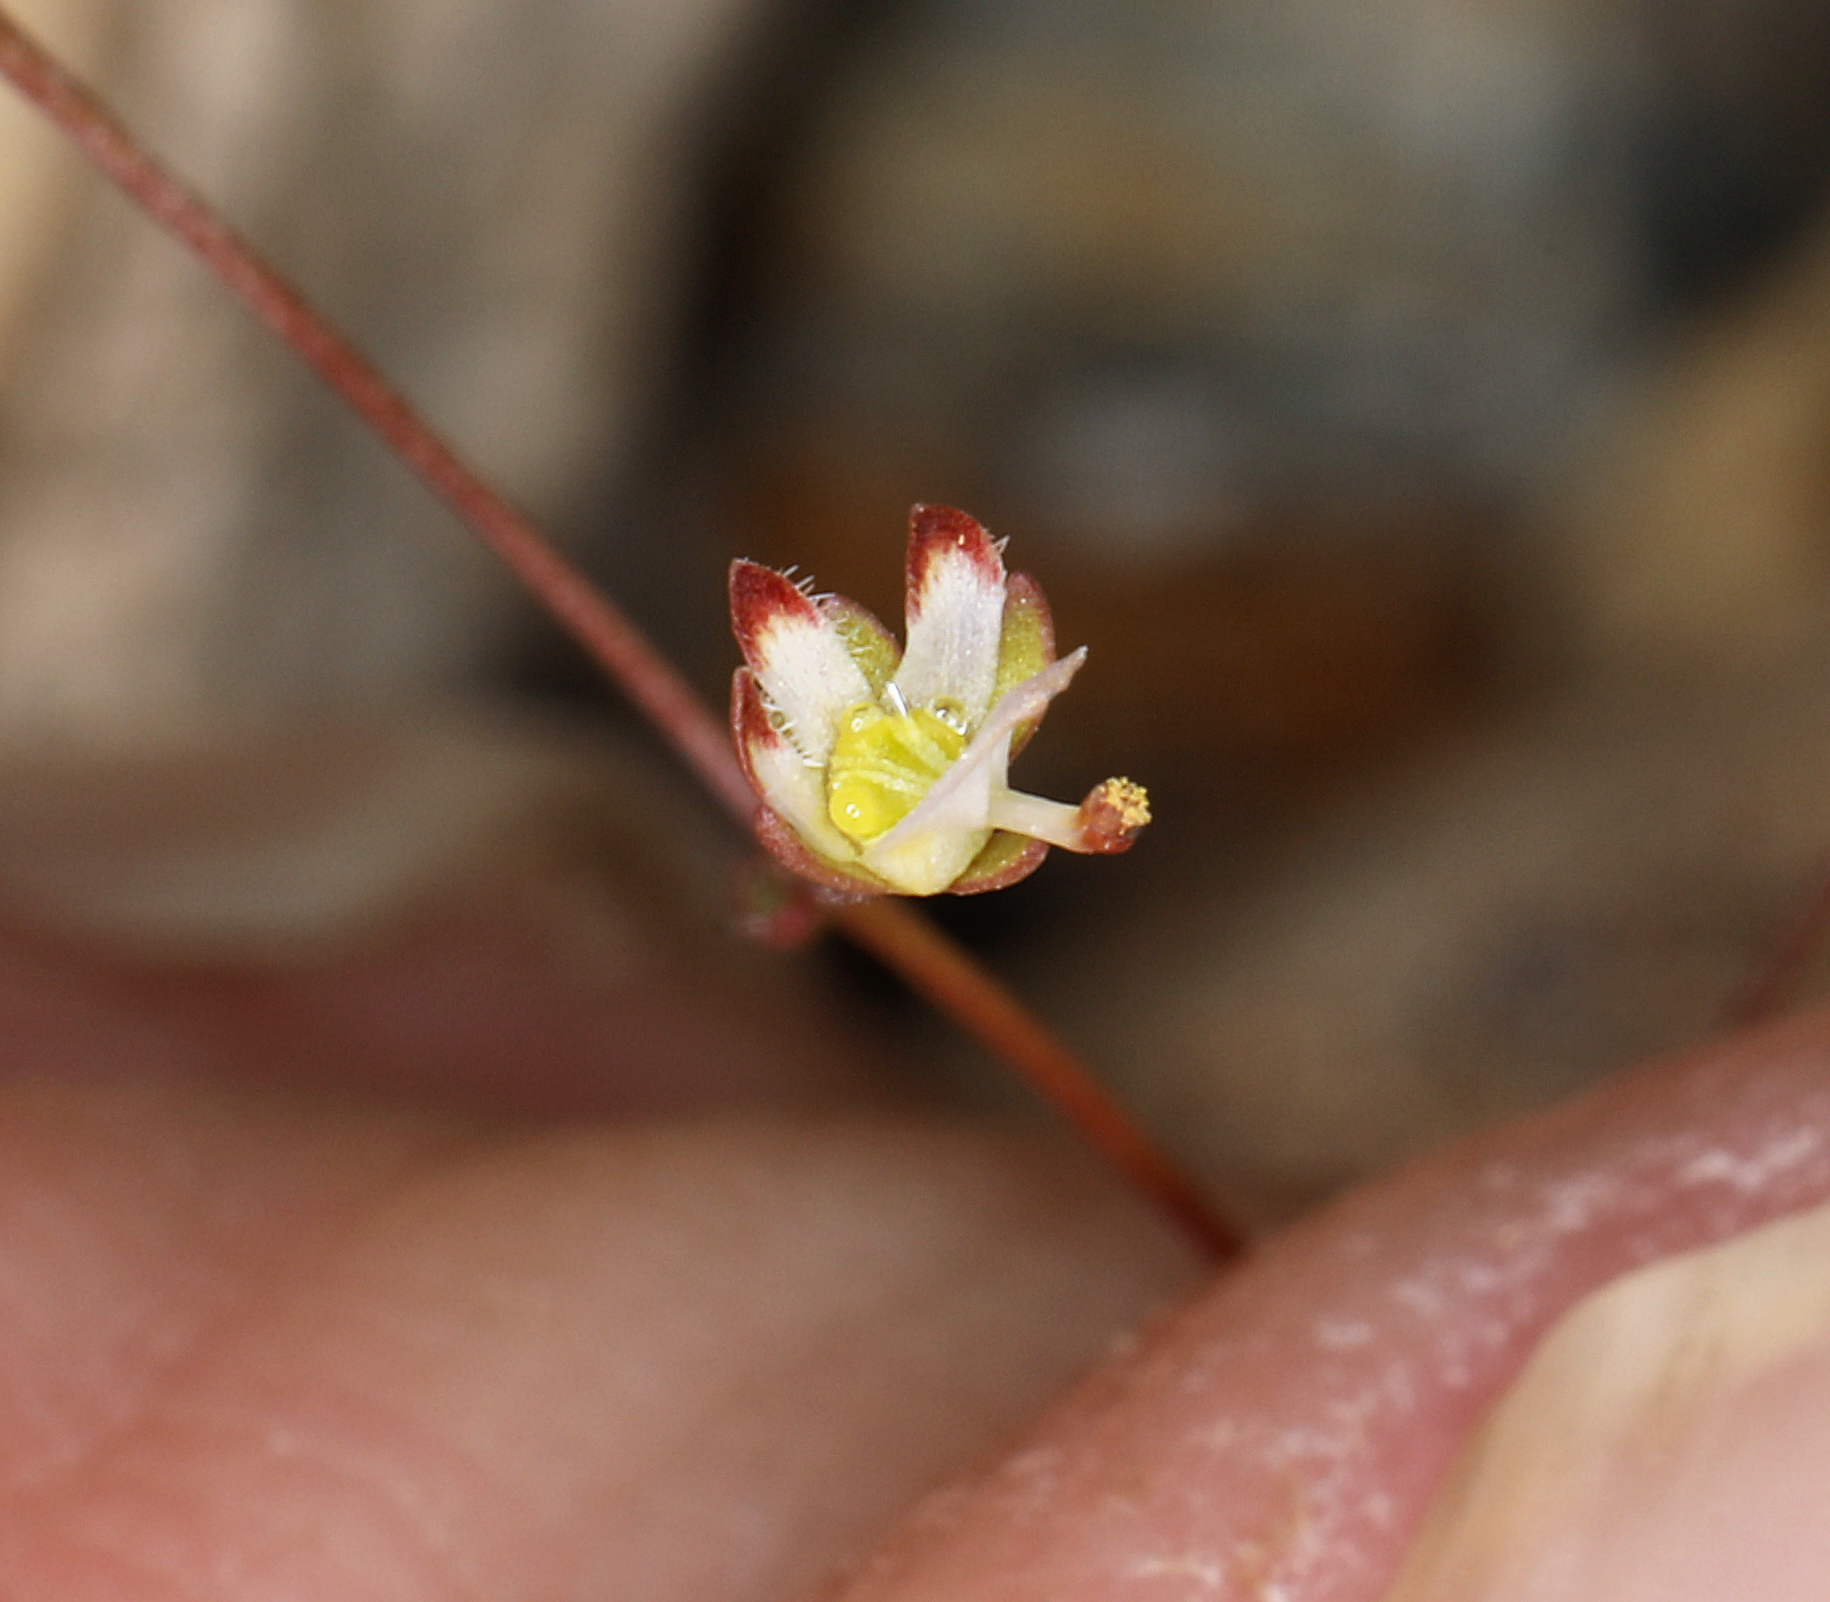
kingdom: Plantae
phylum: Tracheophyta
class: Magnoliopsida
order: Asterales
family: Campanulaceae
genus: Nemacladus
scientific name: Nemacladus morefieldii
